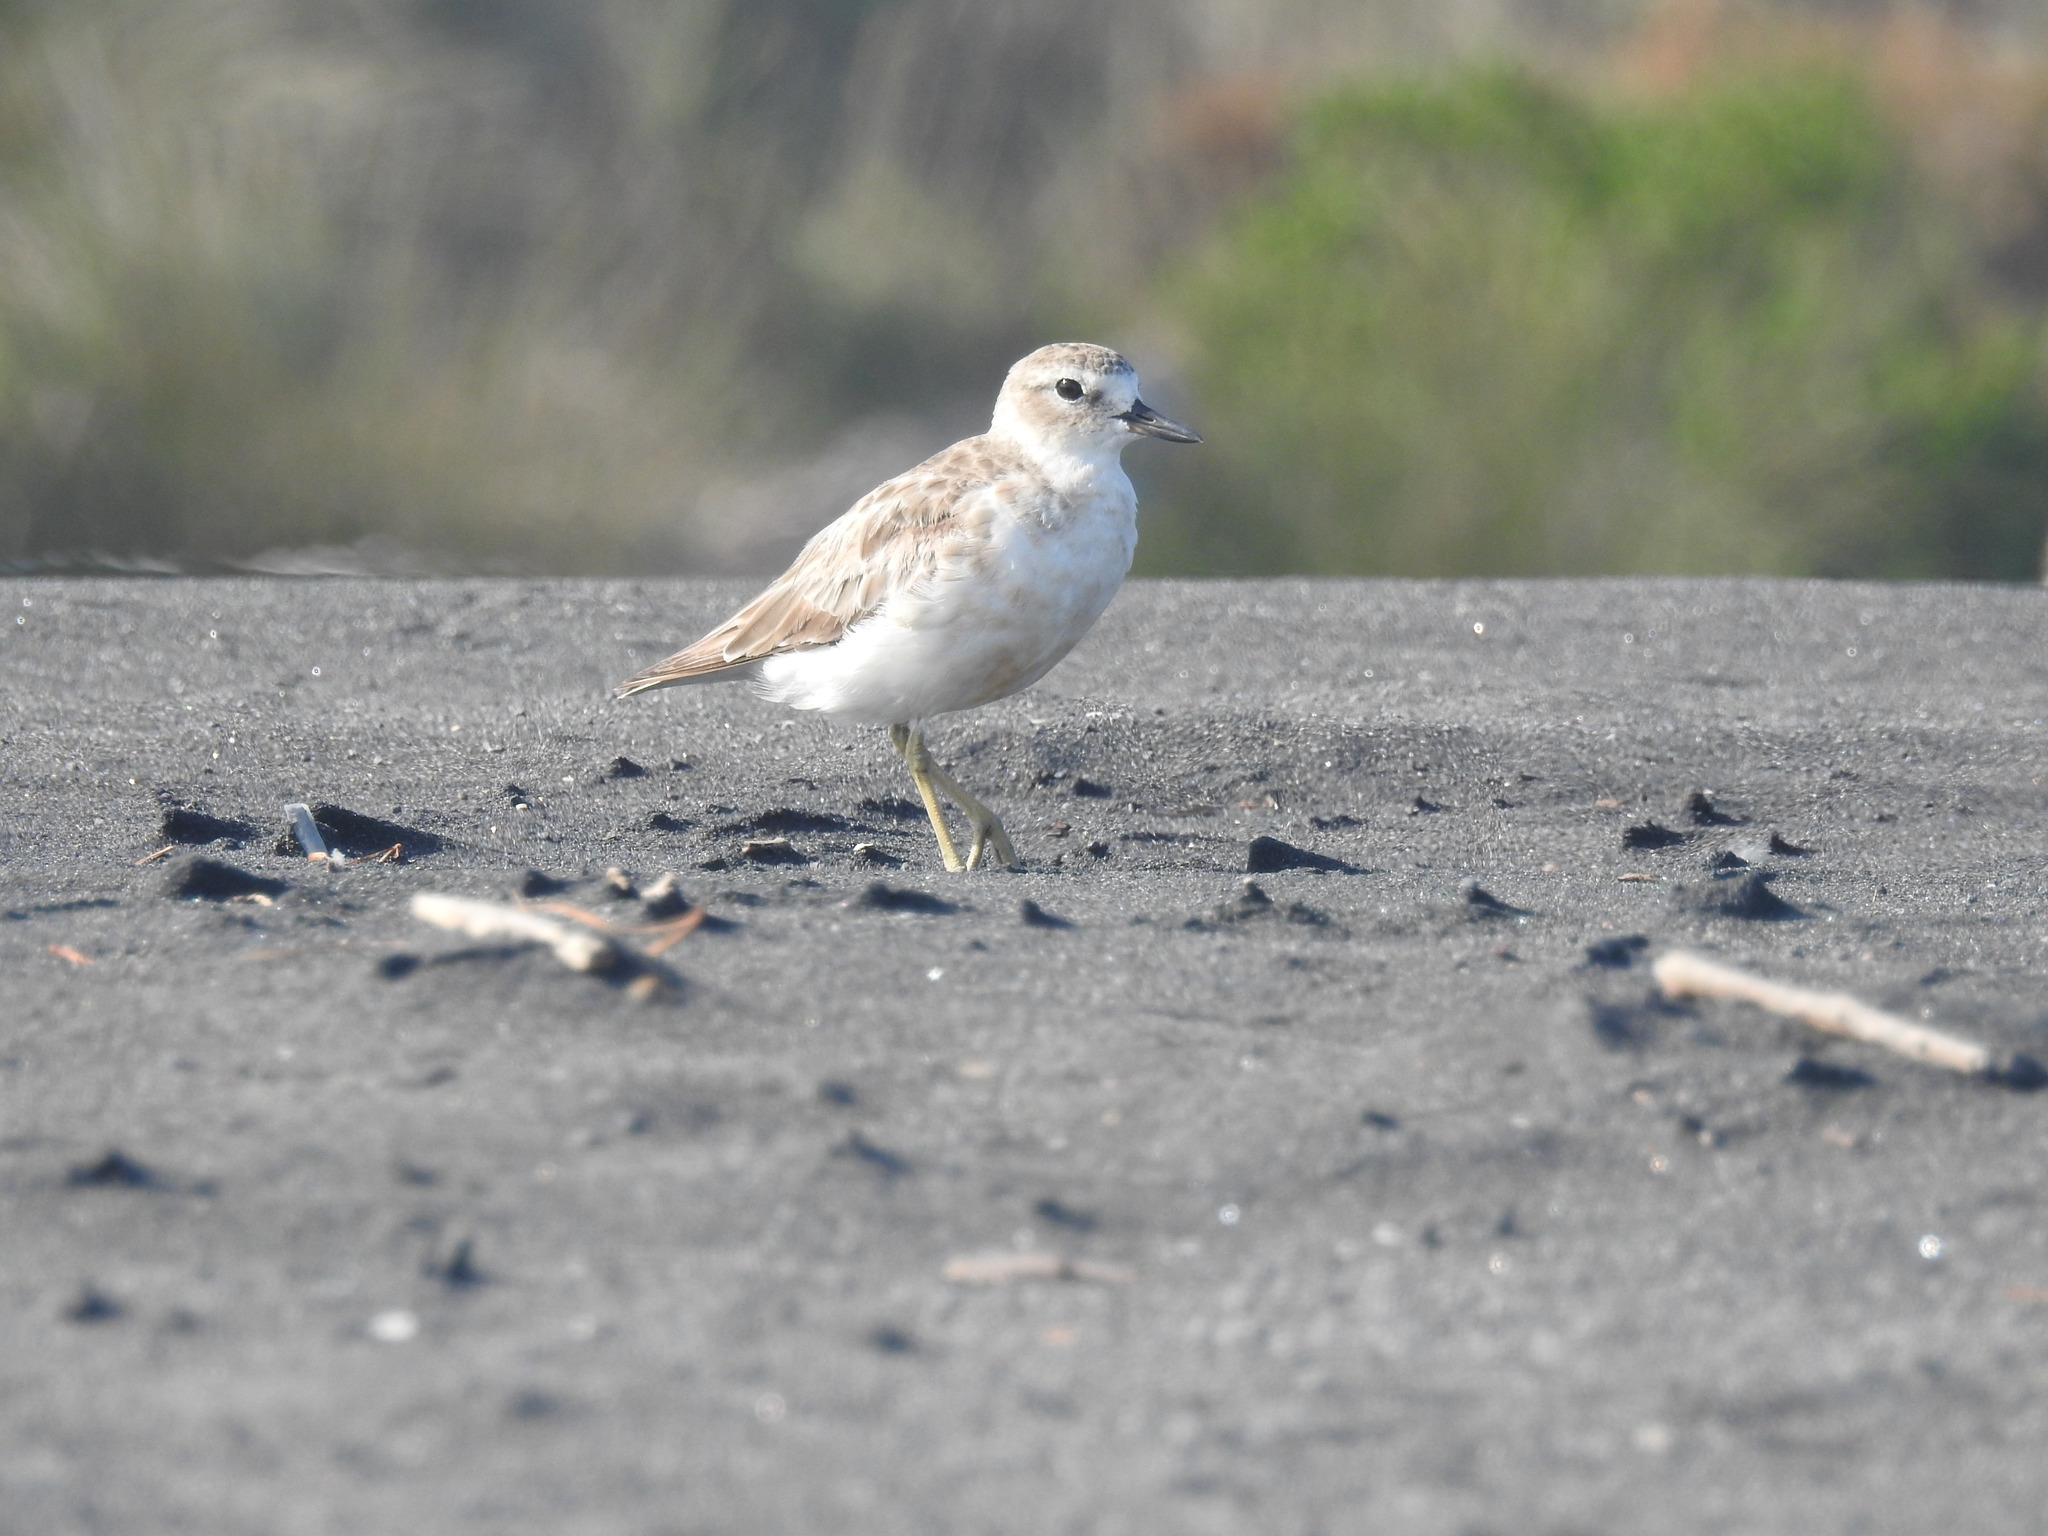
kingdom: Animalia
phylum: Chordata
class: Aves
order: Charadriiformes
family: Charadriidae
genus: Anarhynchus
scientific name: Anarhynchus
